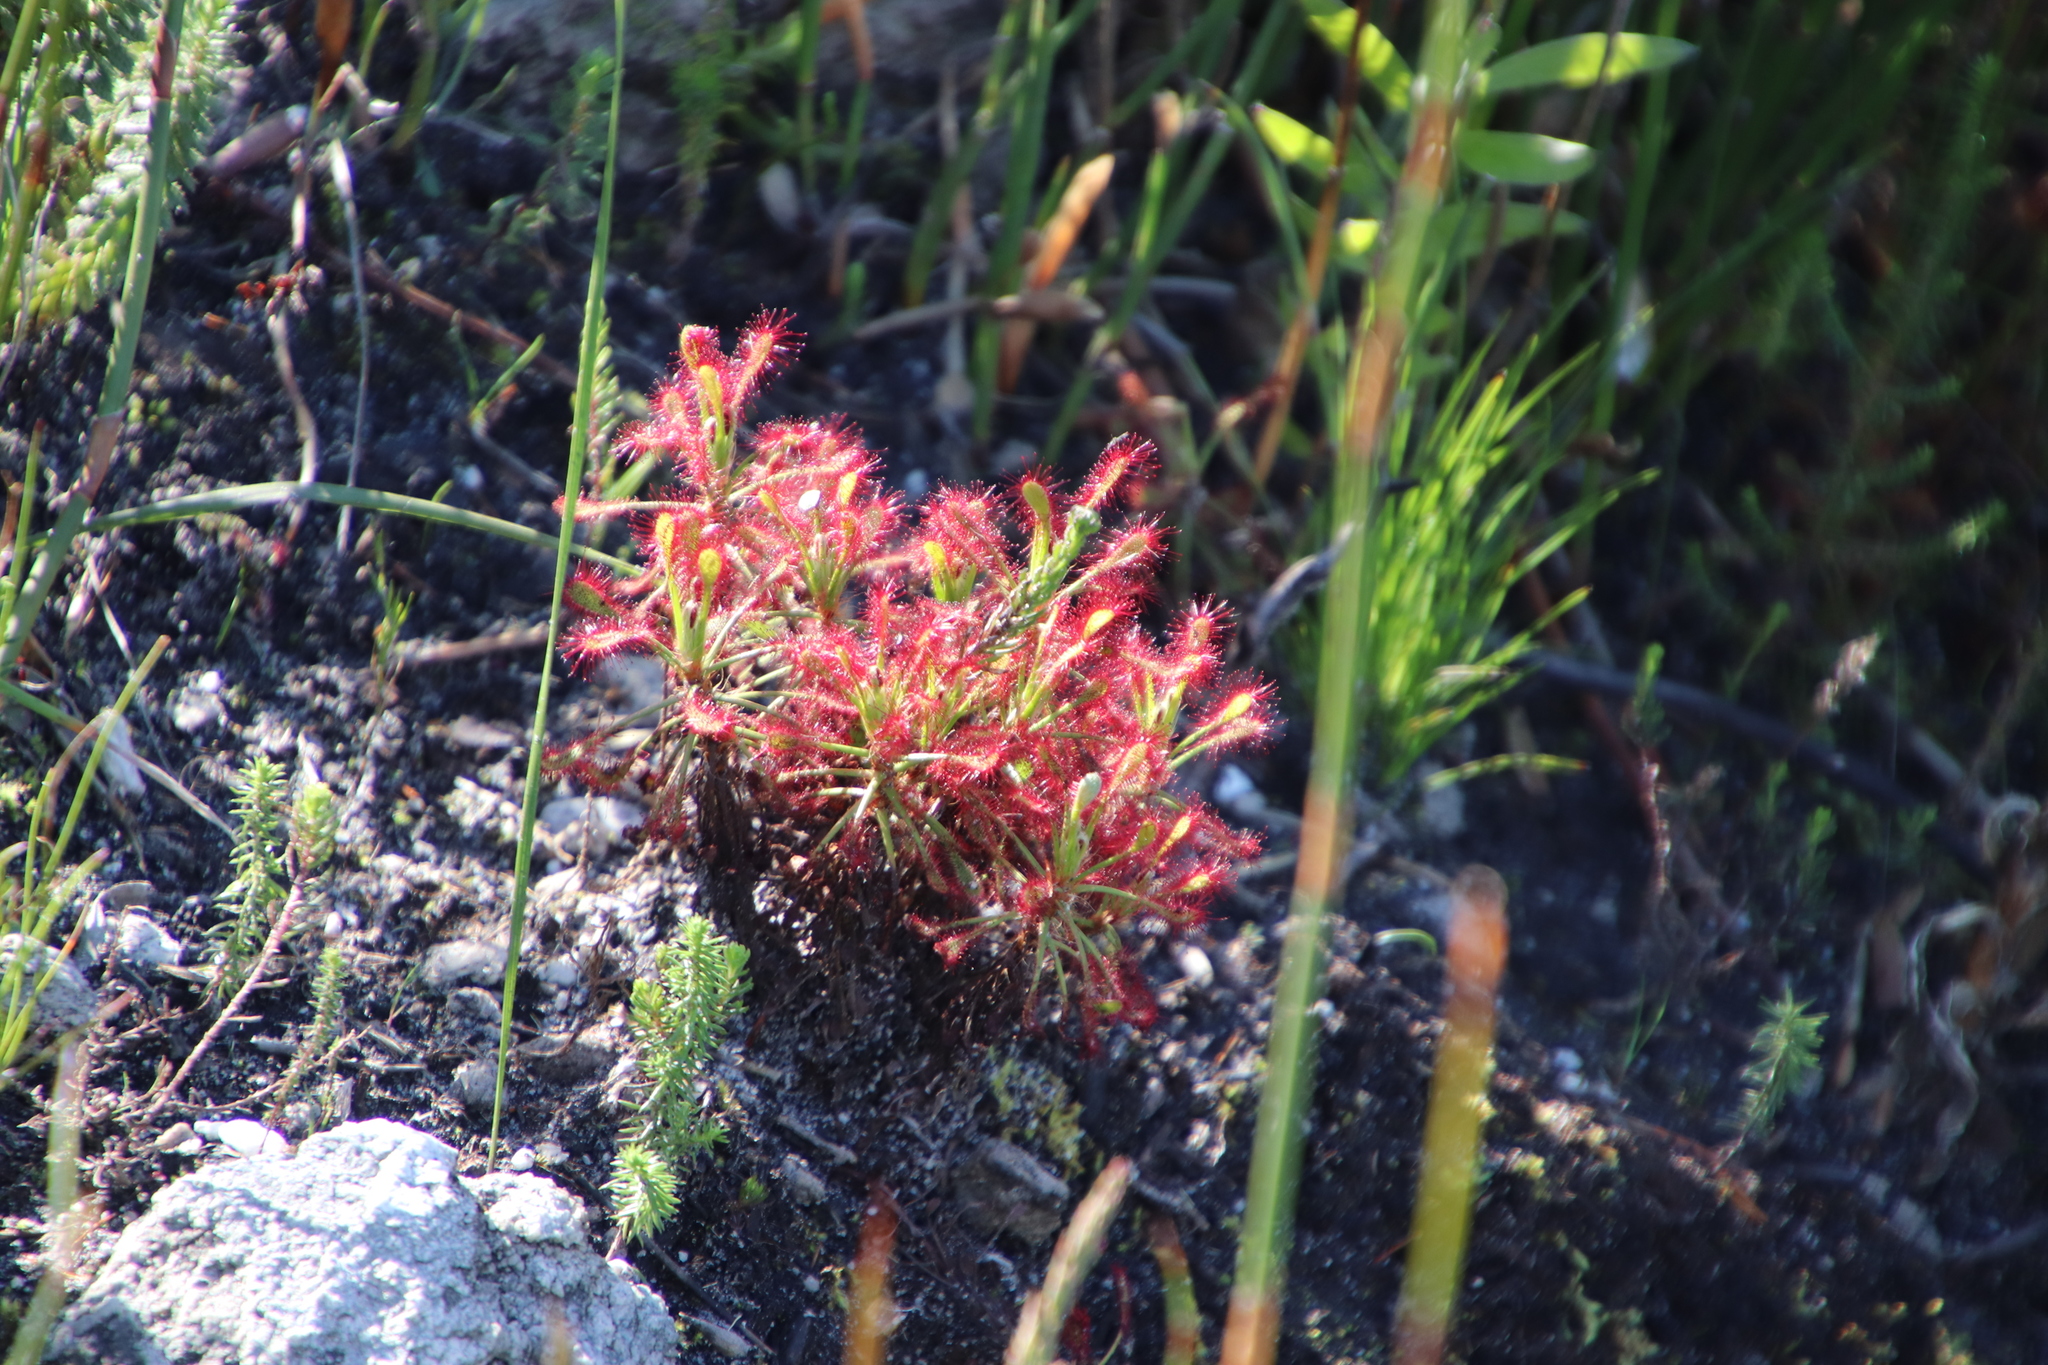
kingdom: Plantae
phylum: Tracheophyta
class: Magnoliopsida
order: Caryophyllales
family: Droseraceae
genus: Drosera
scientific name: Drosera glabripes
